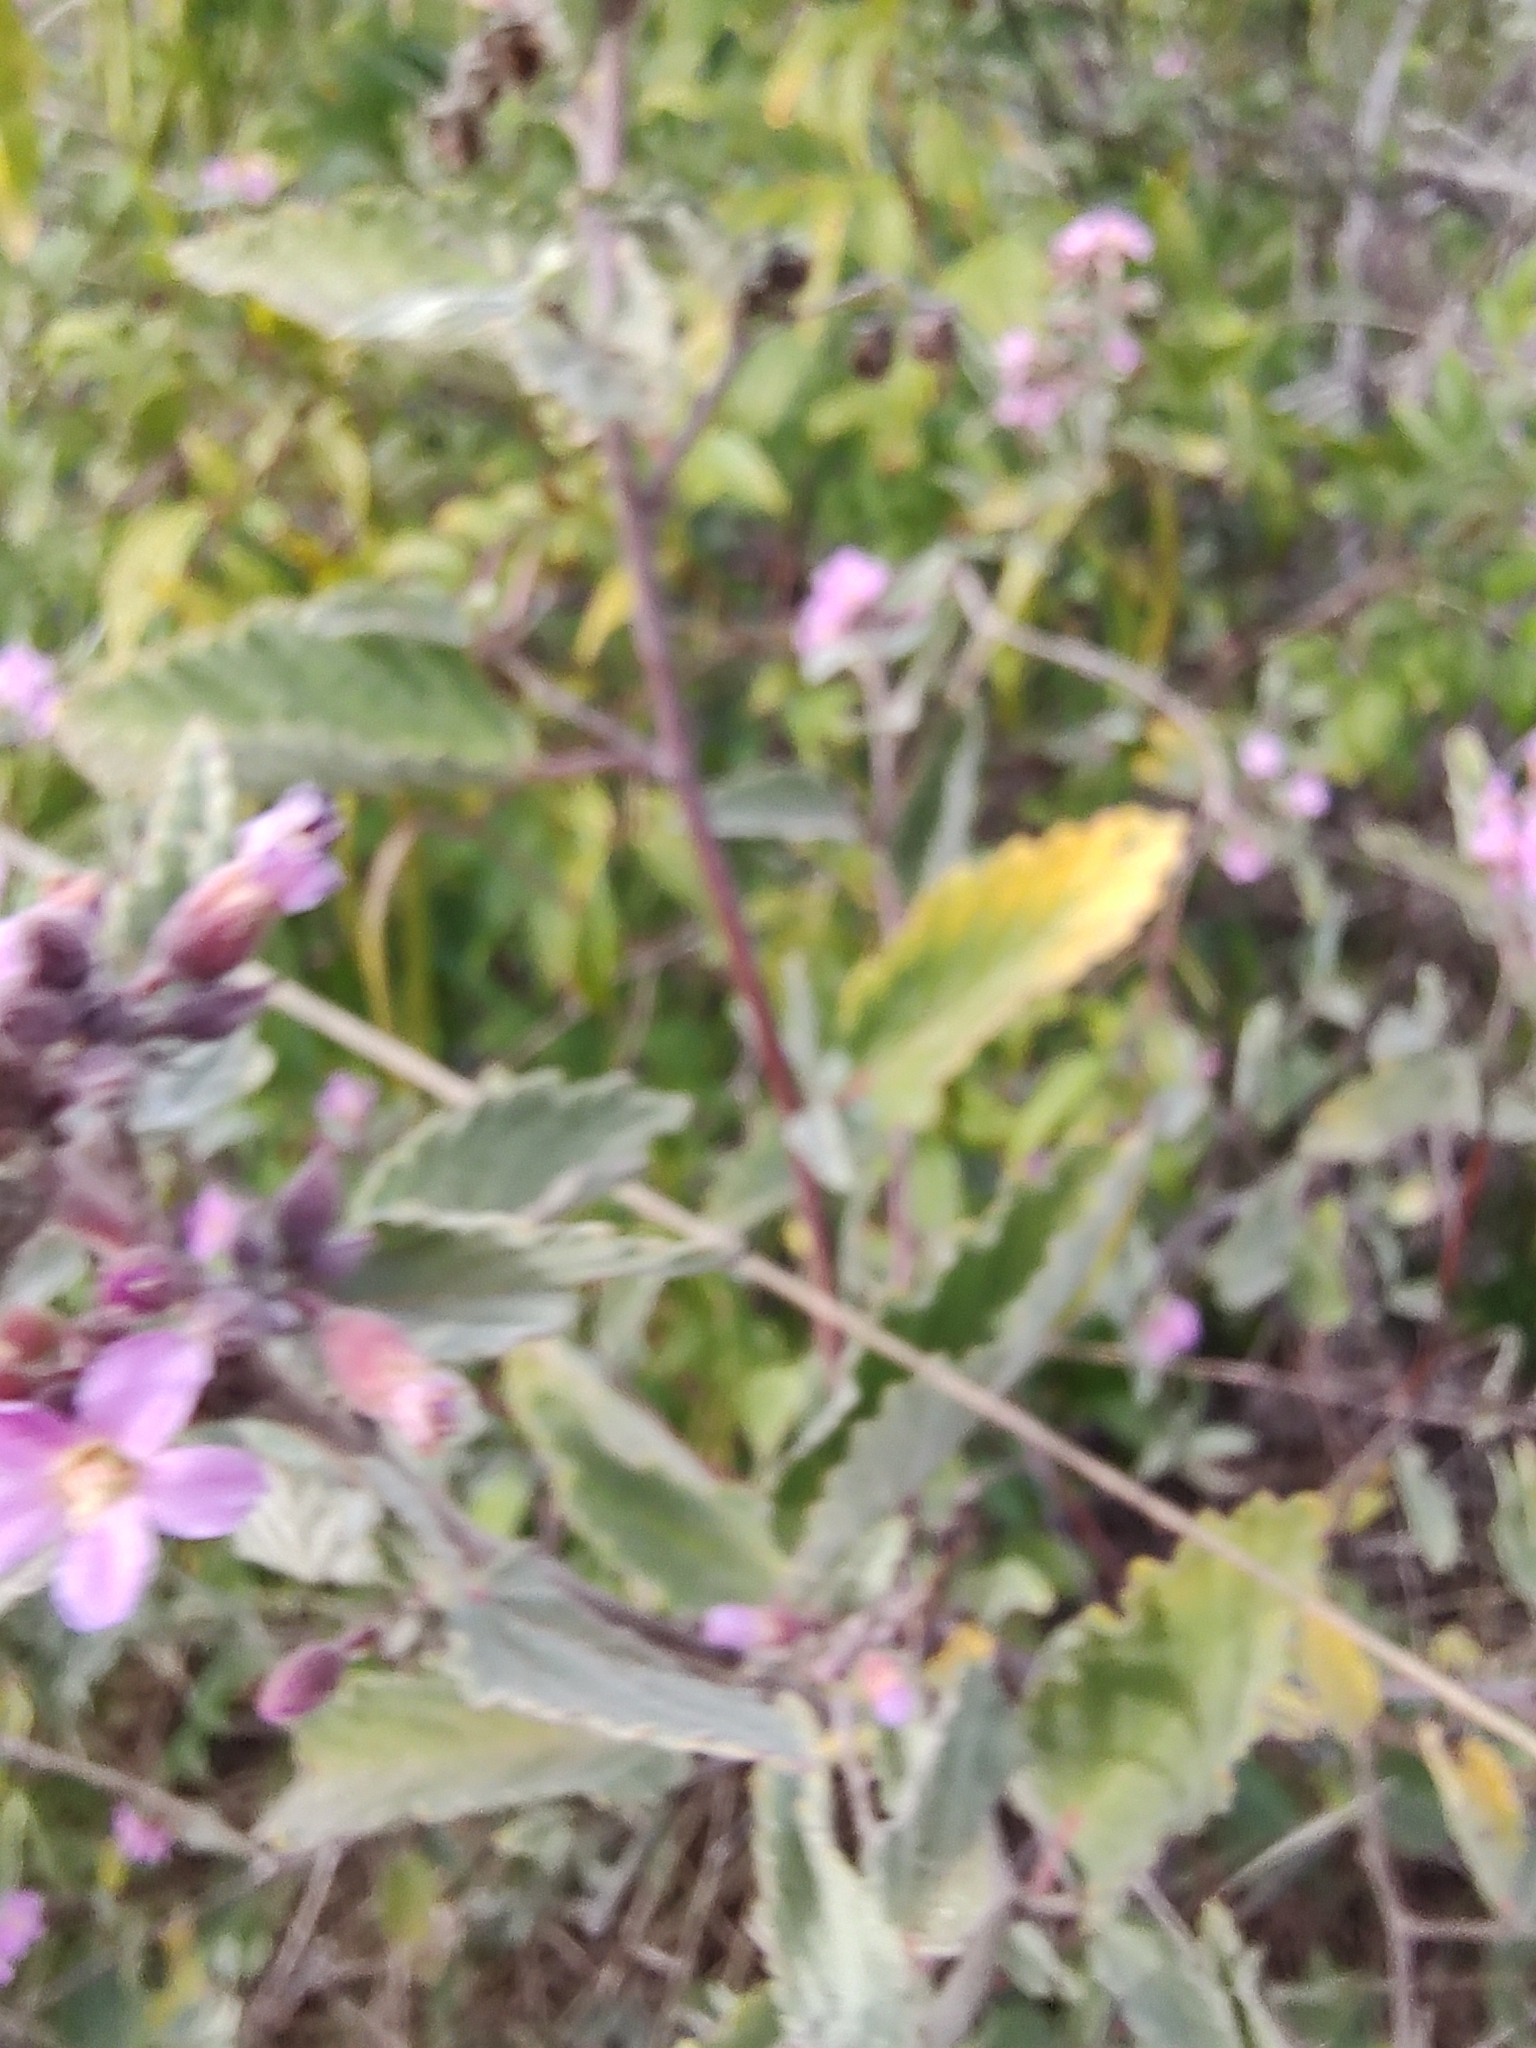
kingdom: Plantae
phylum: Tracheophyta
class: Magnoliopsida
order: Malvales
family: Malvaceae
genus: Melochia
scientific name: Melochia tomentosa
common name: Black torch
